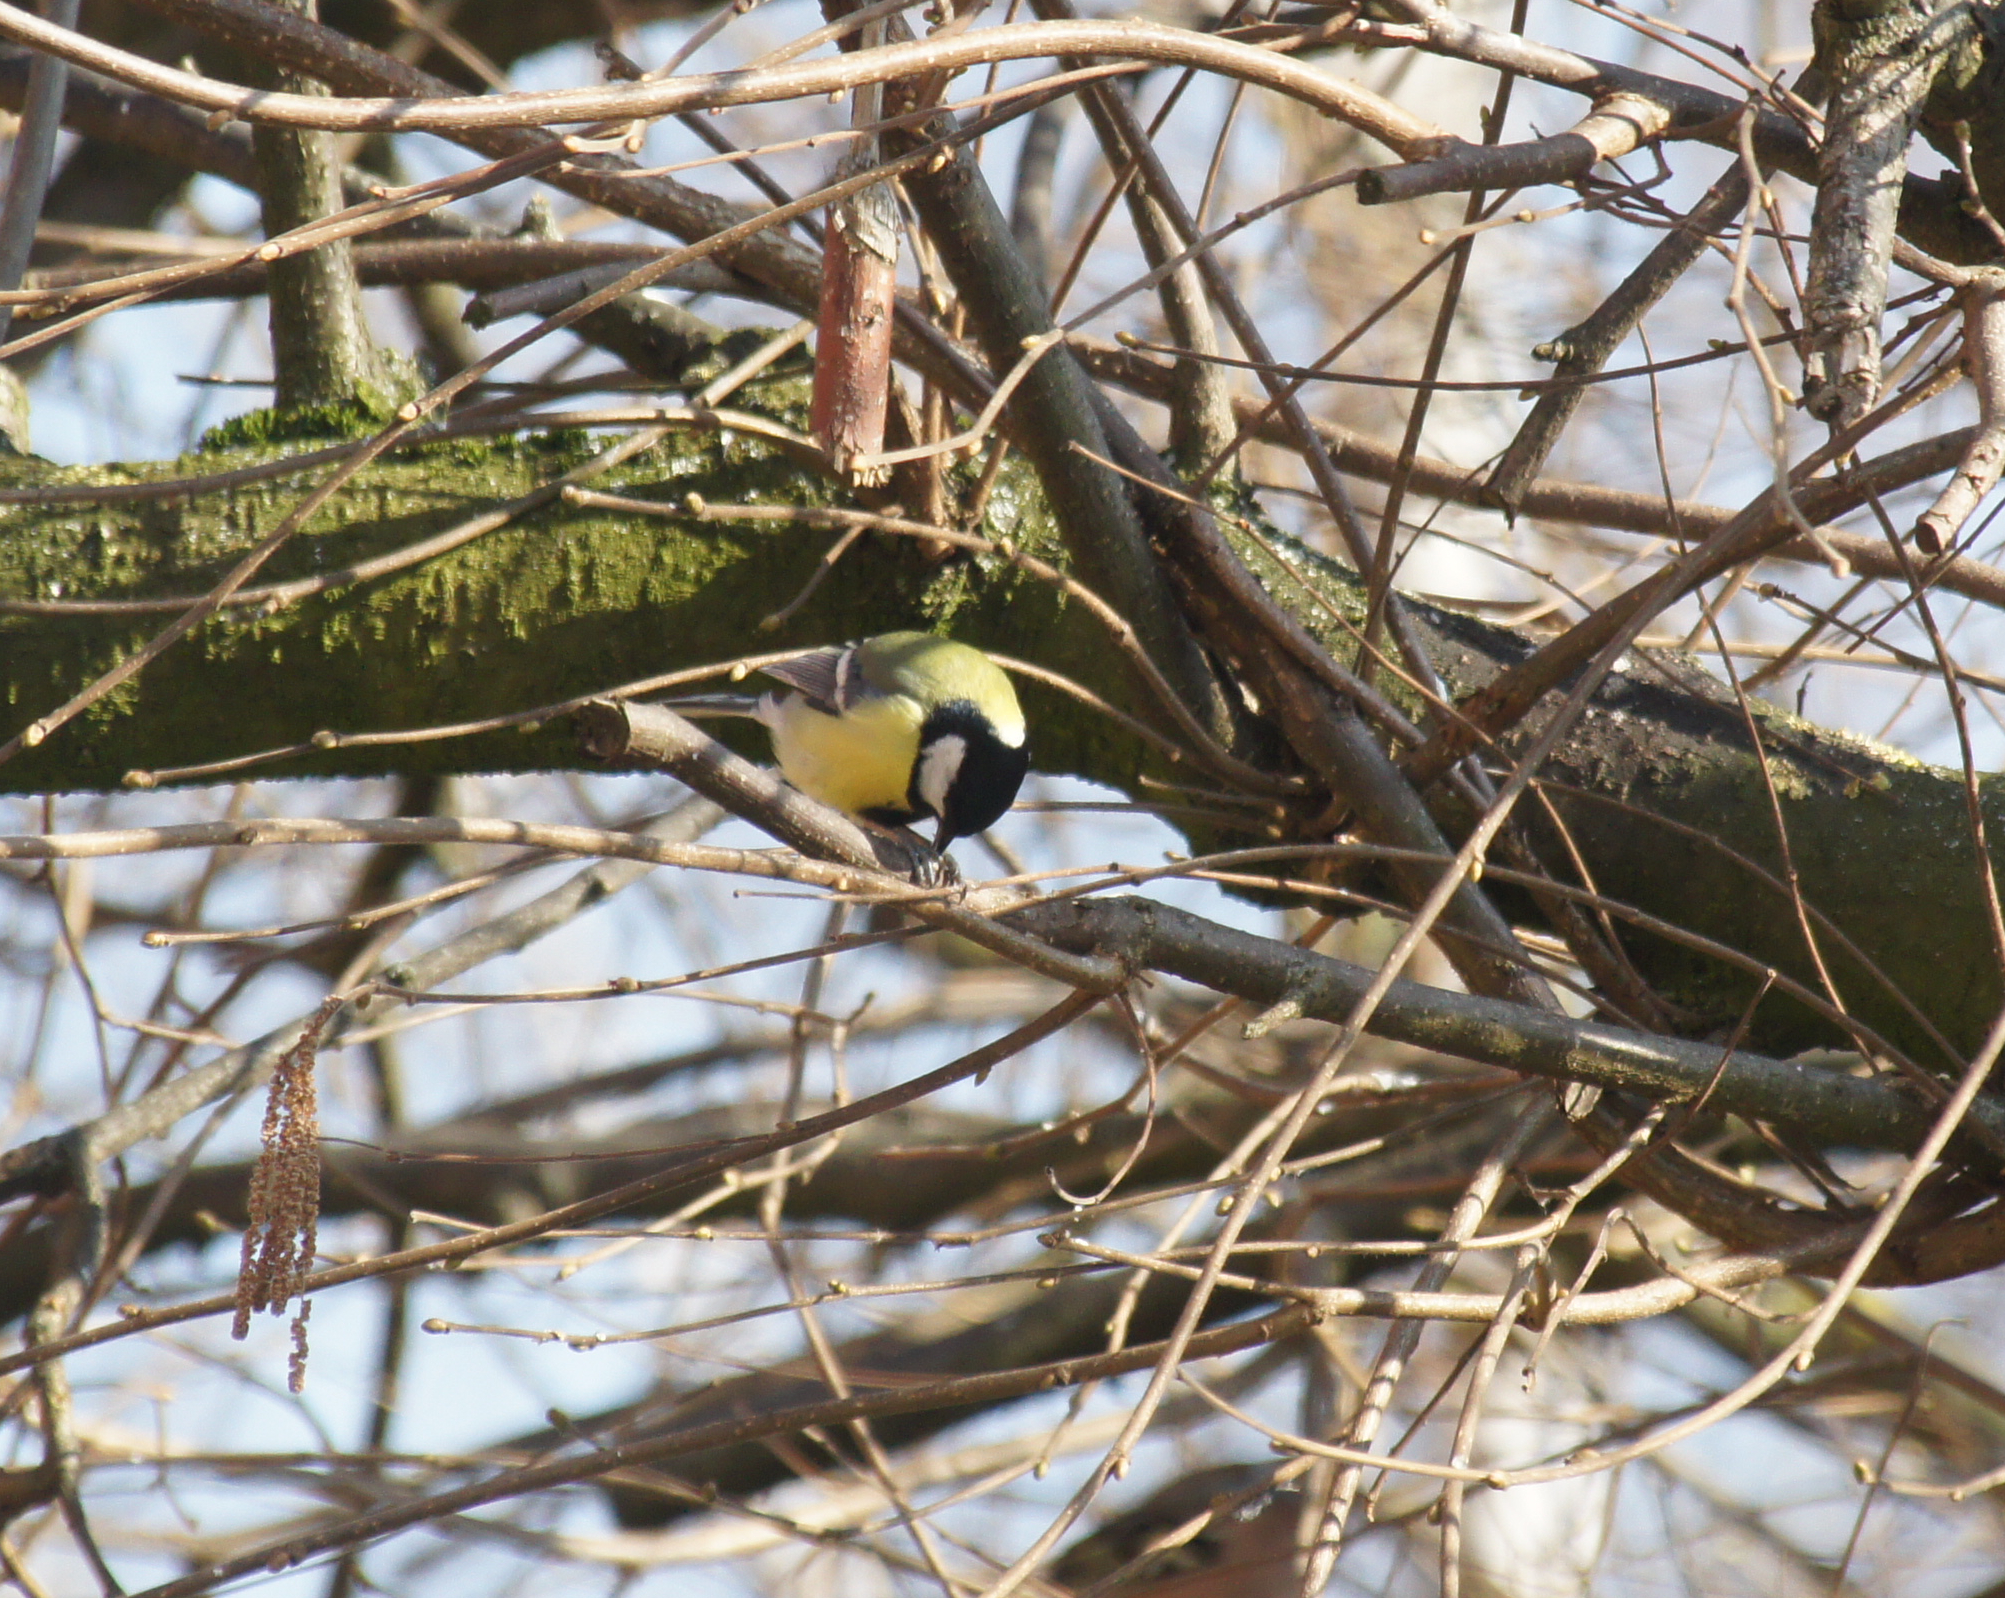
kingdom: Animalia
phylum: Chordata
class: Aves
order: Passeriformes
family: Paridae
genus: Parus
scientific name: Parus major
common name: Great tit
